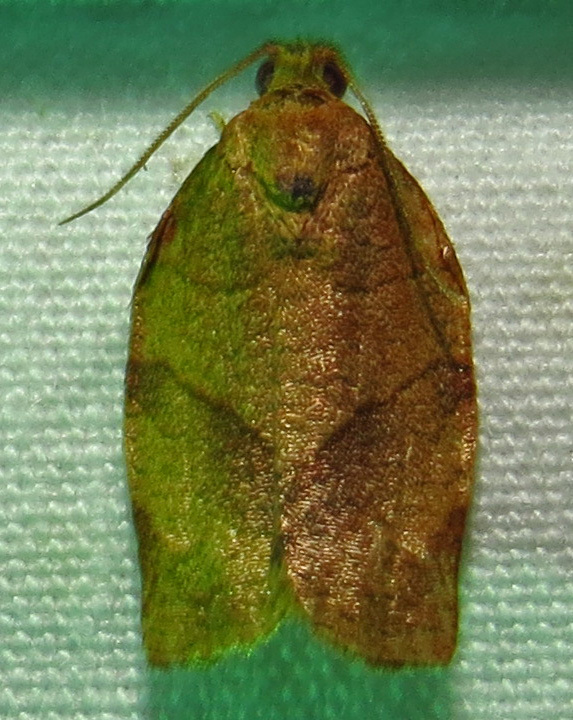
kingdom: Animalia
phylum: Arthropoda
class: Insecta
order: Lepidoptera
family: Tortricidae
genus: Choristoneura
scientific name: Choristoneura rosaceana
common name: Oblique-banded leafroller moth
